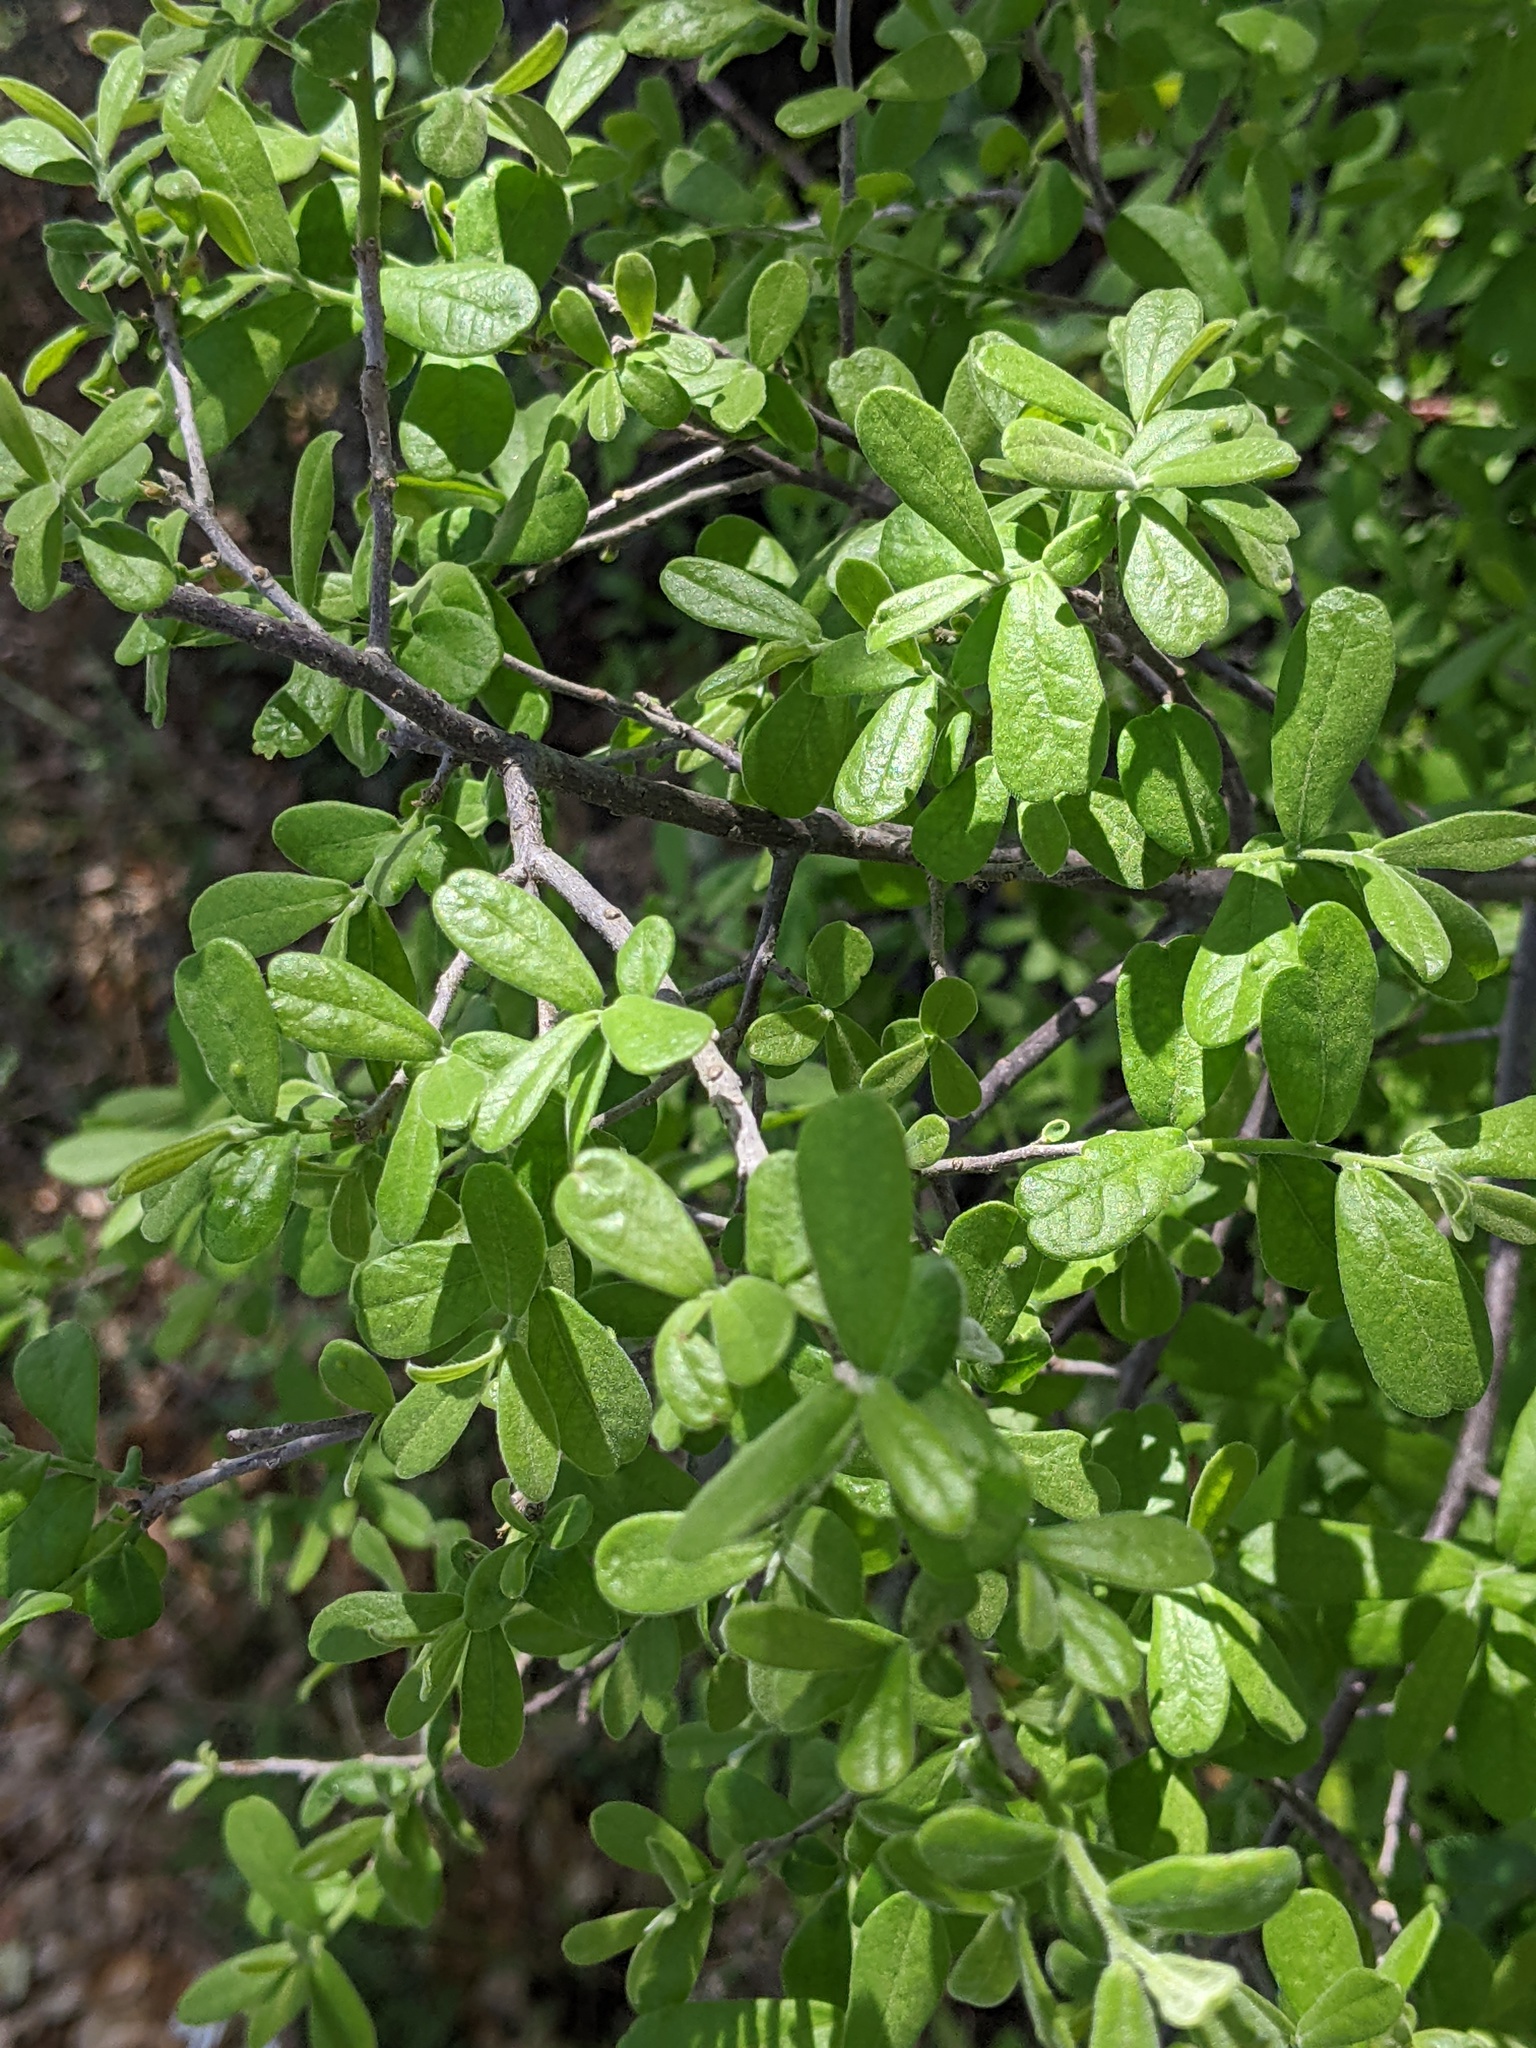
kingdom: Plantae
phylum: Tracheophyta
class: Magnoliopsida
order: Ericales
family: Ebenaceae
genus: Diospyros
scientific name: Diospyros texana
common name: Texas persimmon
